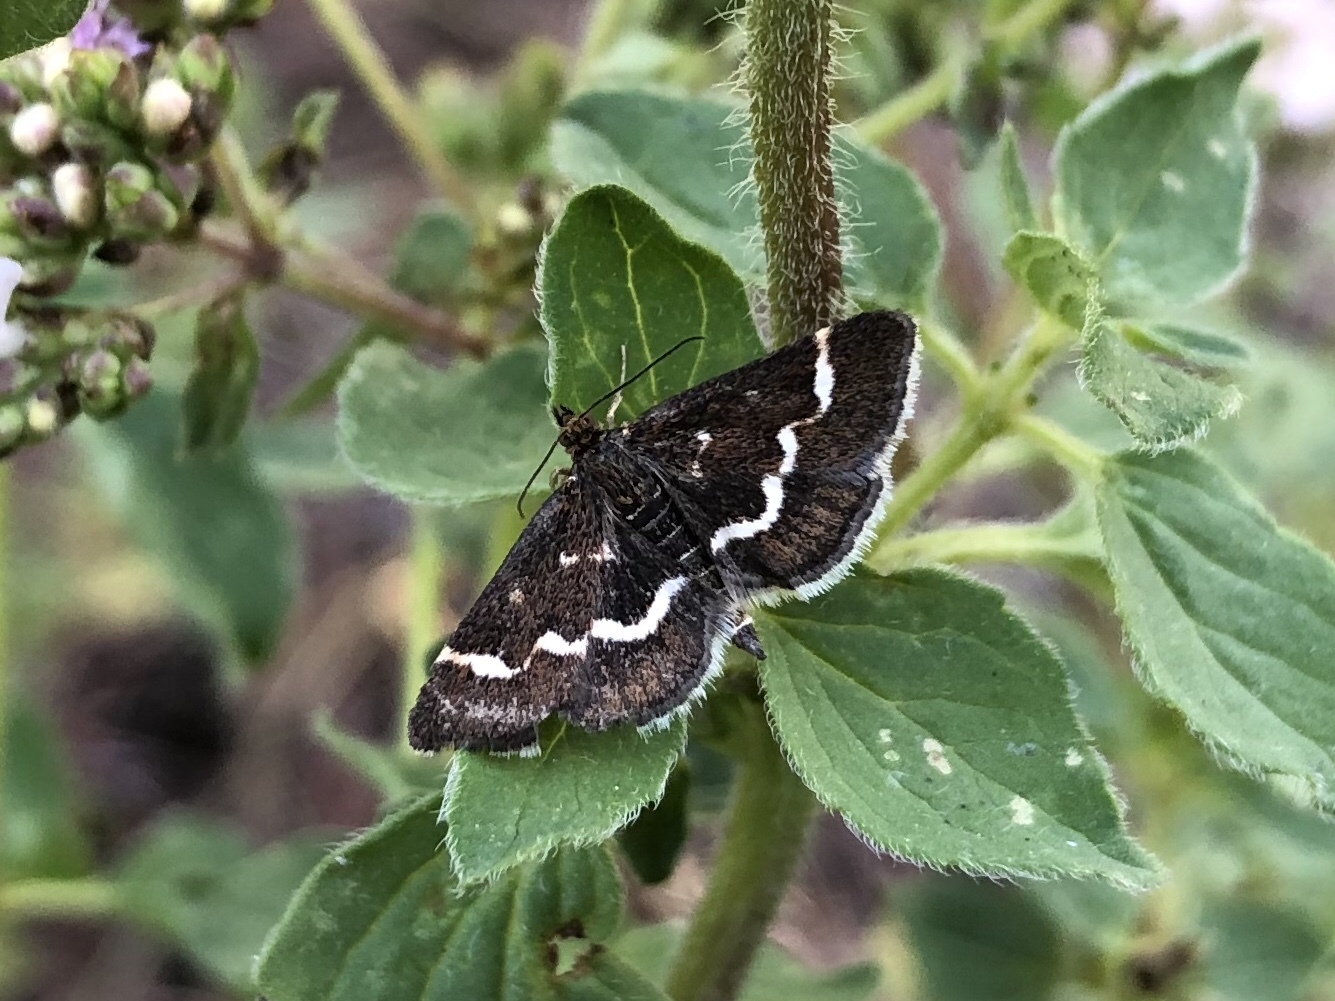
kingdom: Animalia
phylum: Arthropoda
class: Insecta
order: Lepidoptera
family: Crambidae
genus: Pyrausta
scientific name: Pyrausta nigrata
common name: Wavy-barred sable
